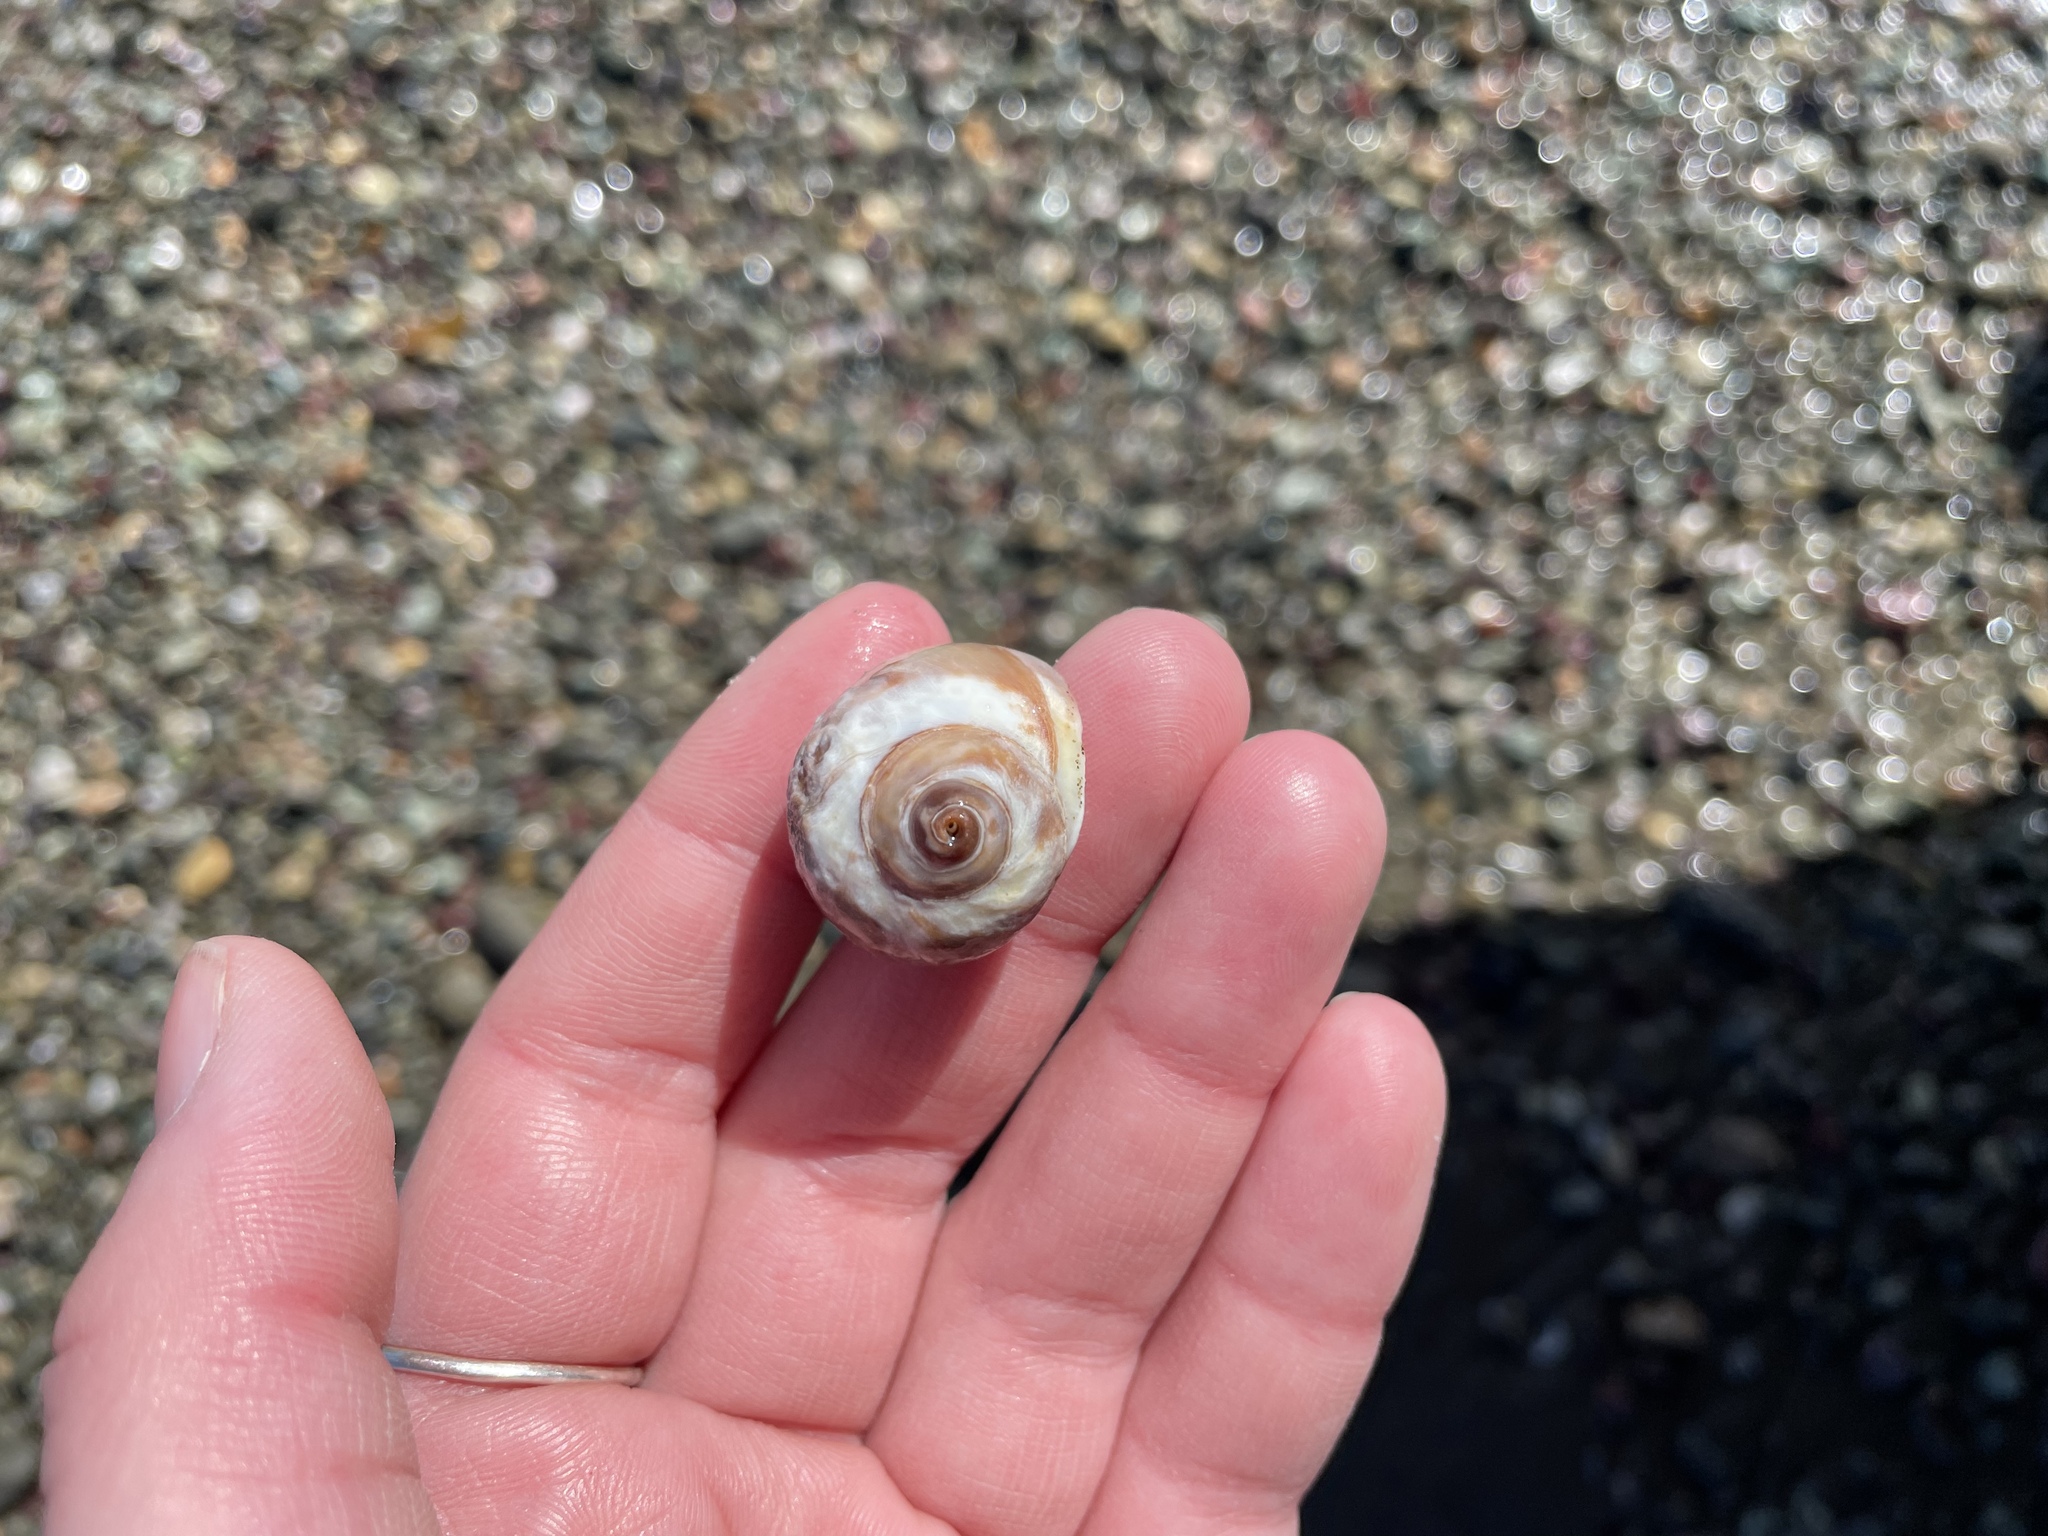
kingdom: Animalia
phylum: Mollusca
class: Gastropoda
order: Littorinimorpha
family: Naticidae
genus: Euspira
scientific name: Euspira heros
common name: Common northern moonsnail
